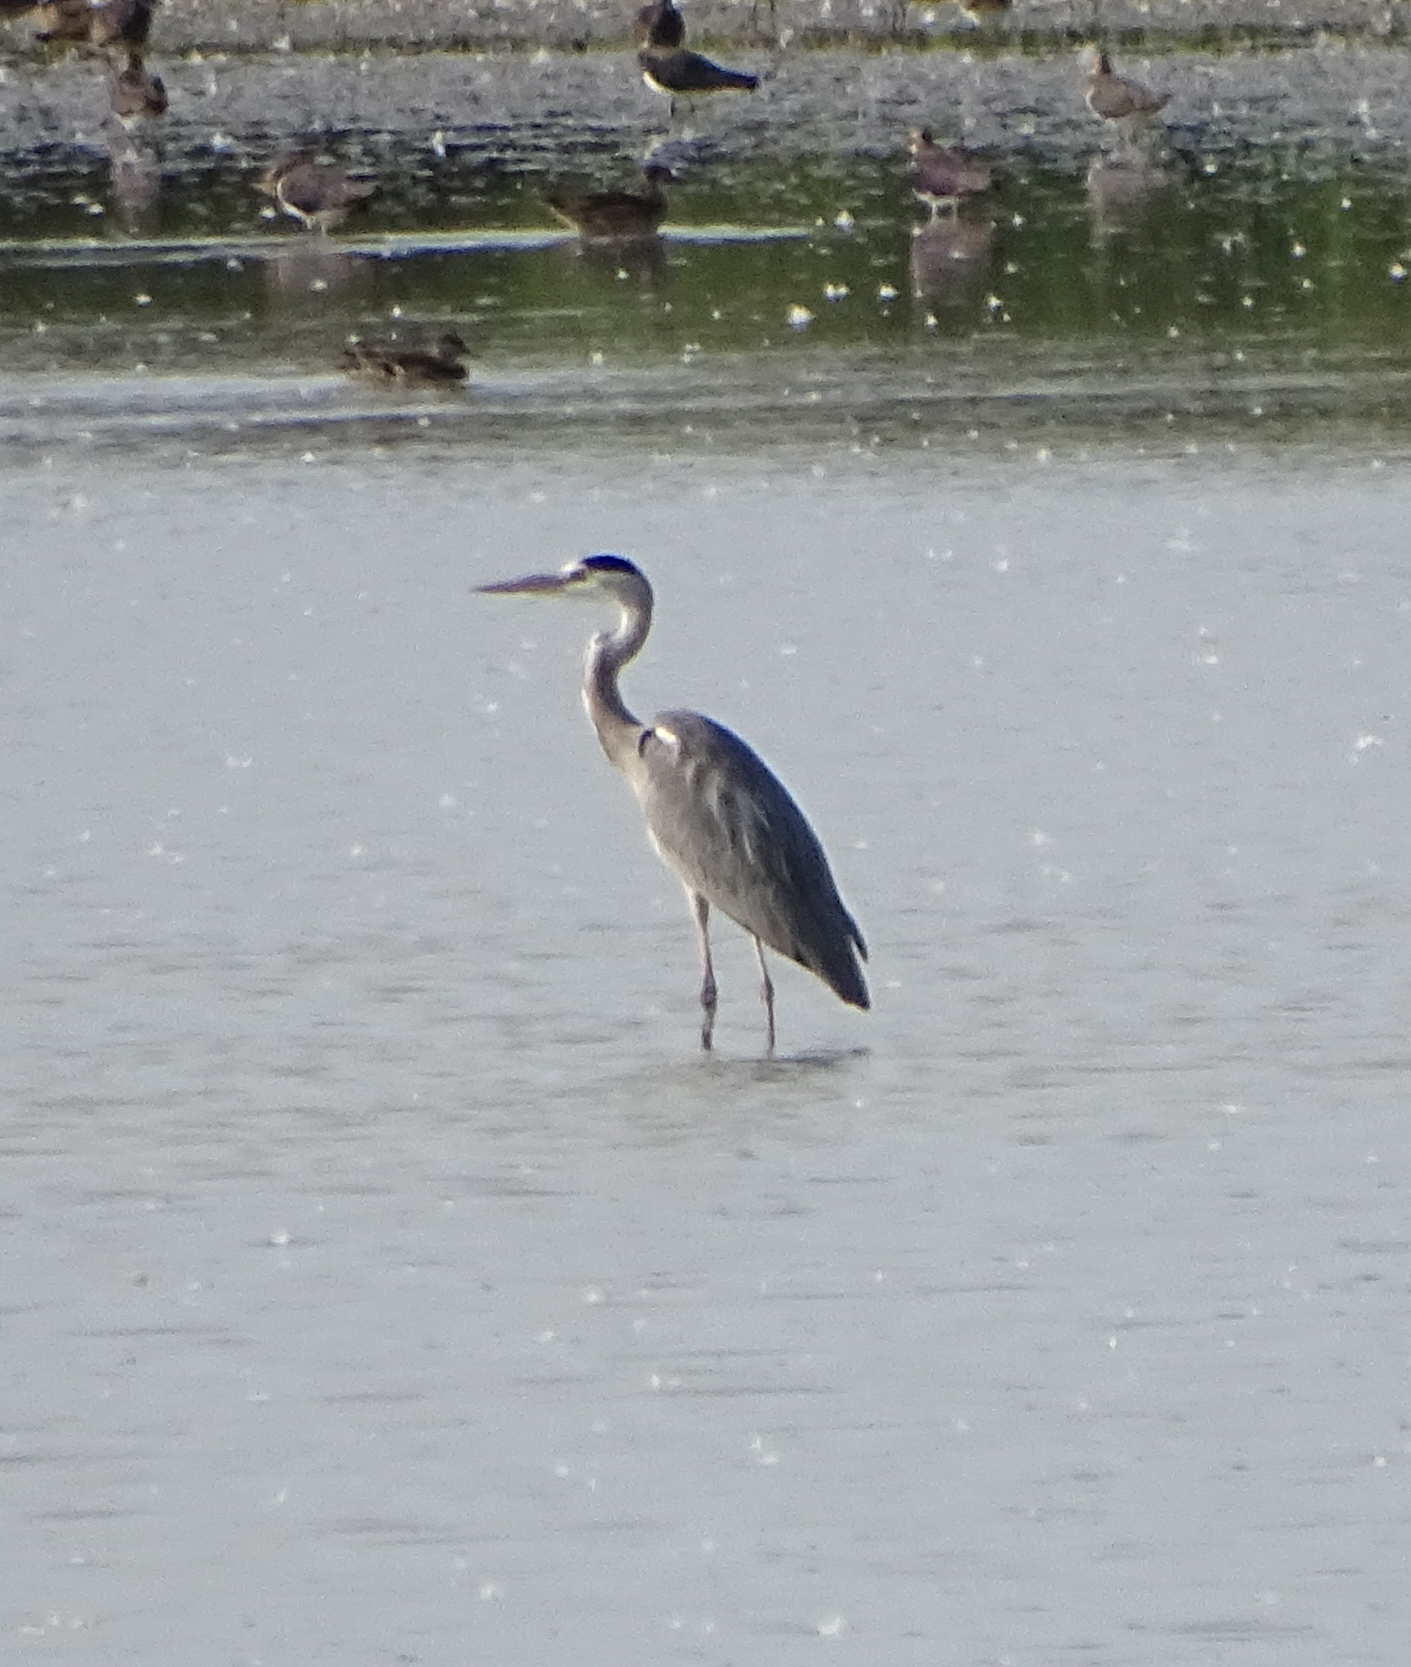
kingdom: Animalia
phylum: Chordata
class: Aves
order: Pelecaniformes
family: Ardeidae
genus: Ardea
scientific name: Ardea cinerea
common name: Grey heron
